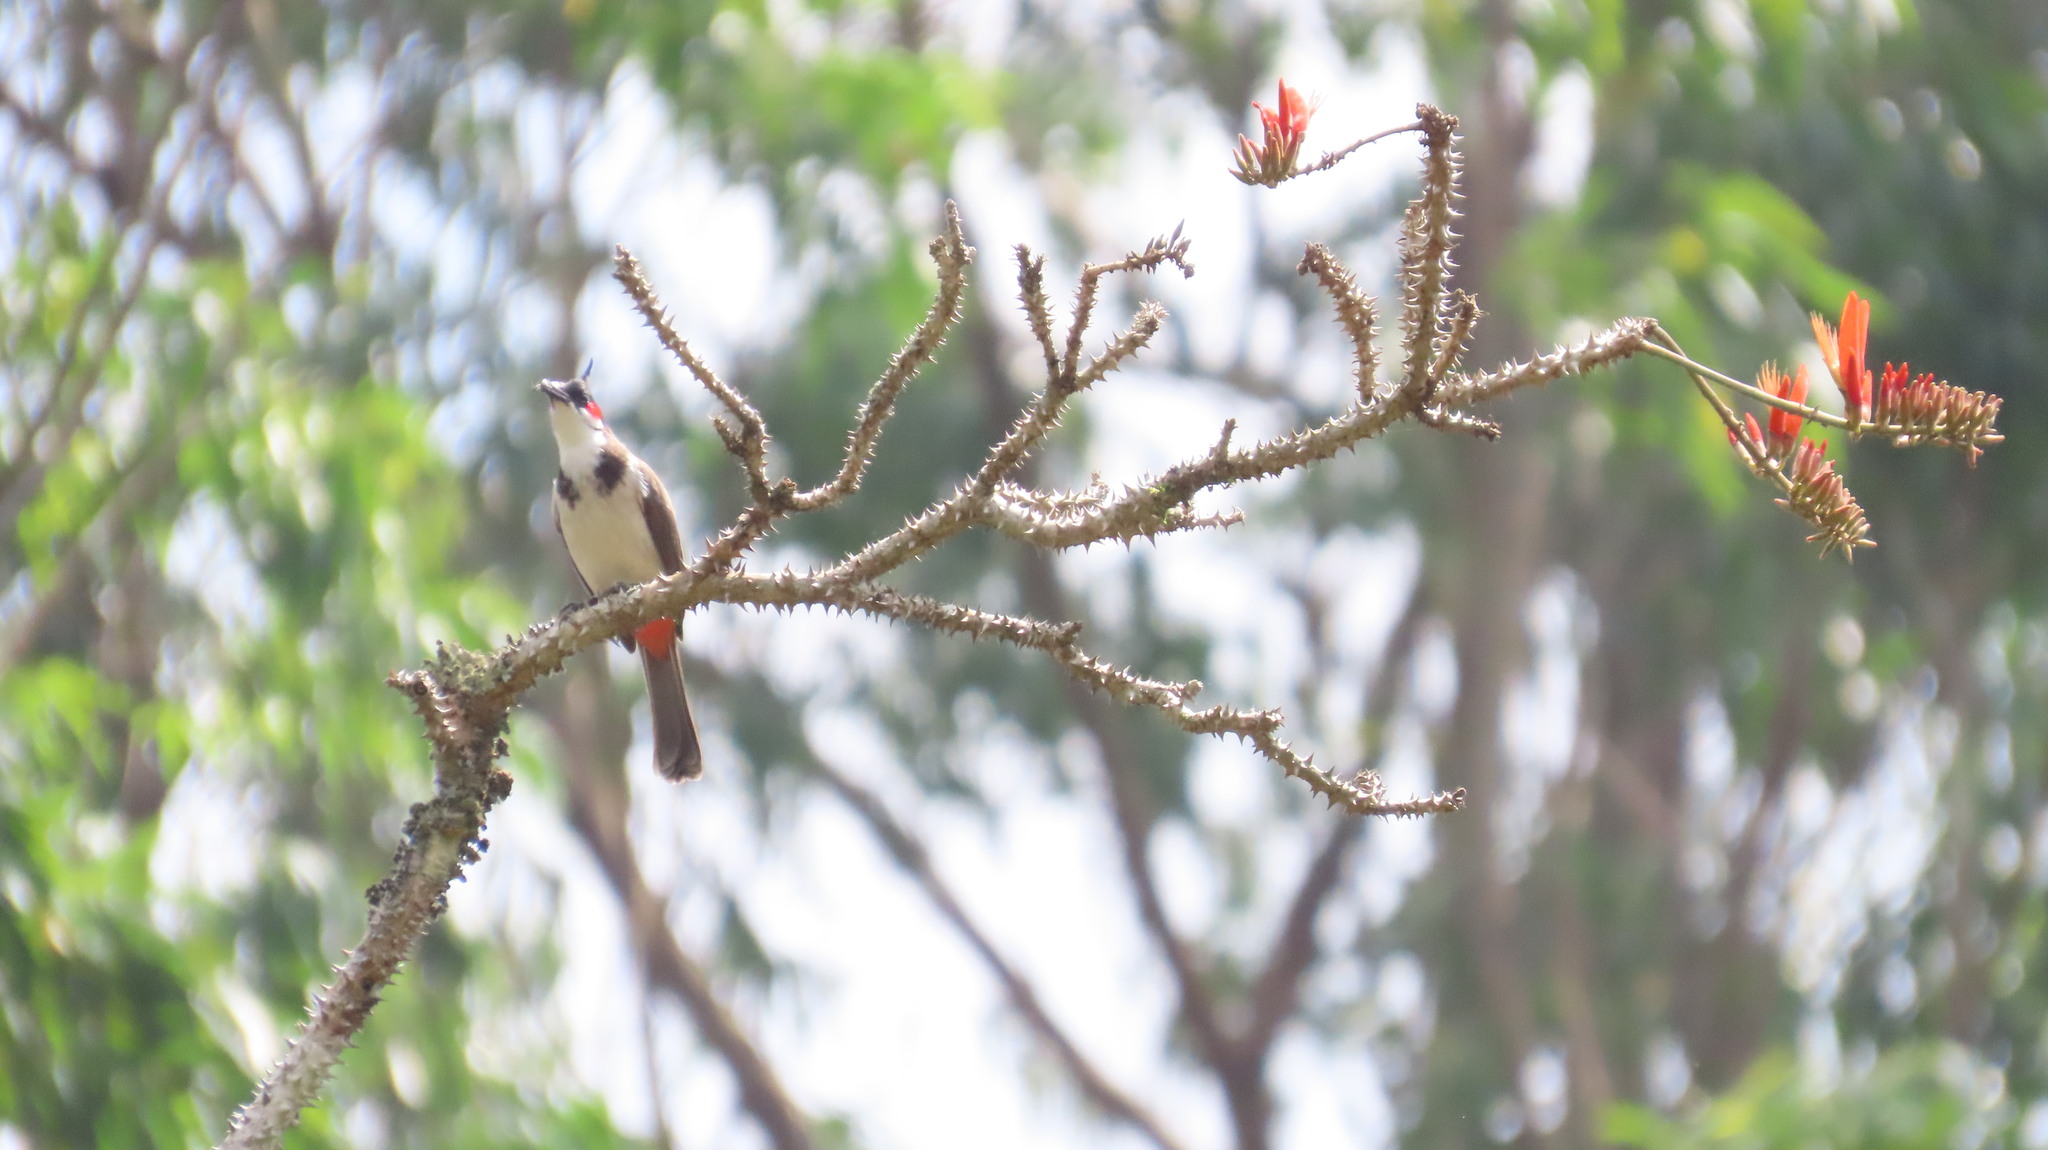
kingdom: Animalia
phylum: Chordata
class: Aves
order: Passeriformes
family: Pycnonotidae
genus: Pycnonotus
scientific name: Pycnonotus jocosus
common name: Red-whiskered bulbul
